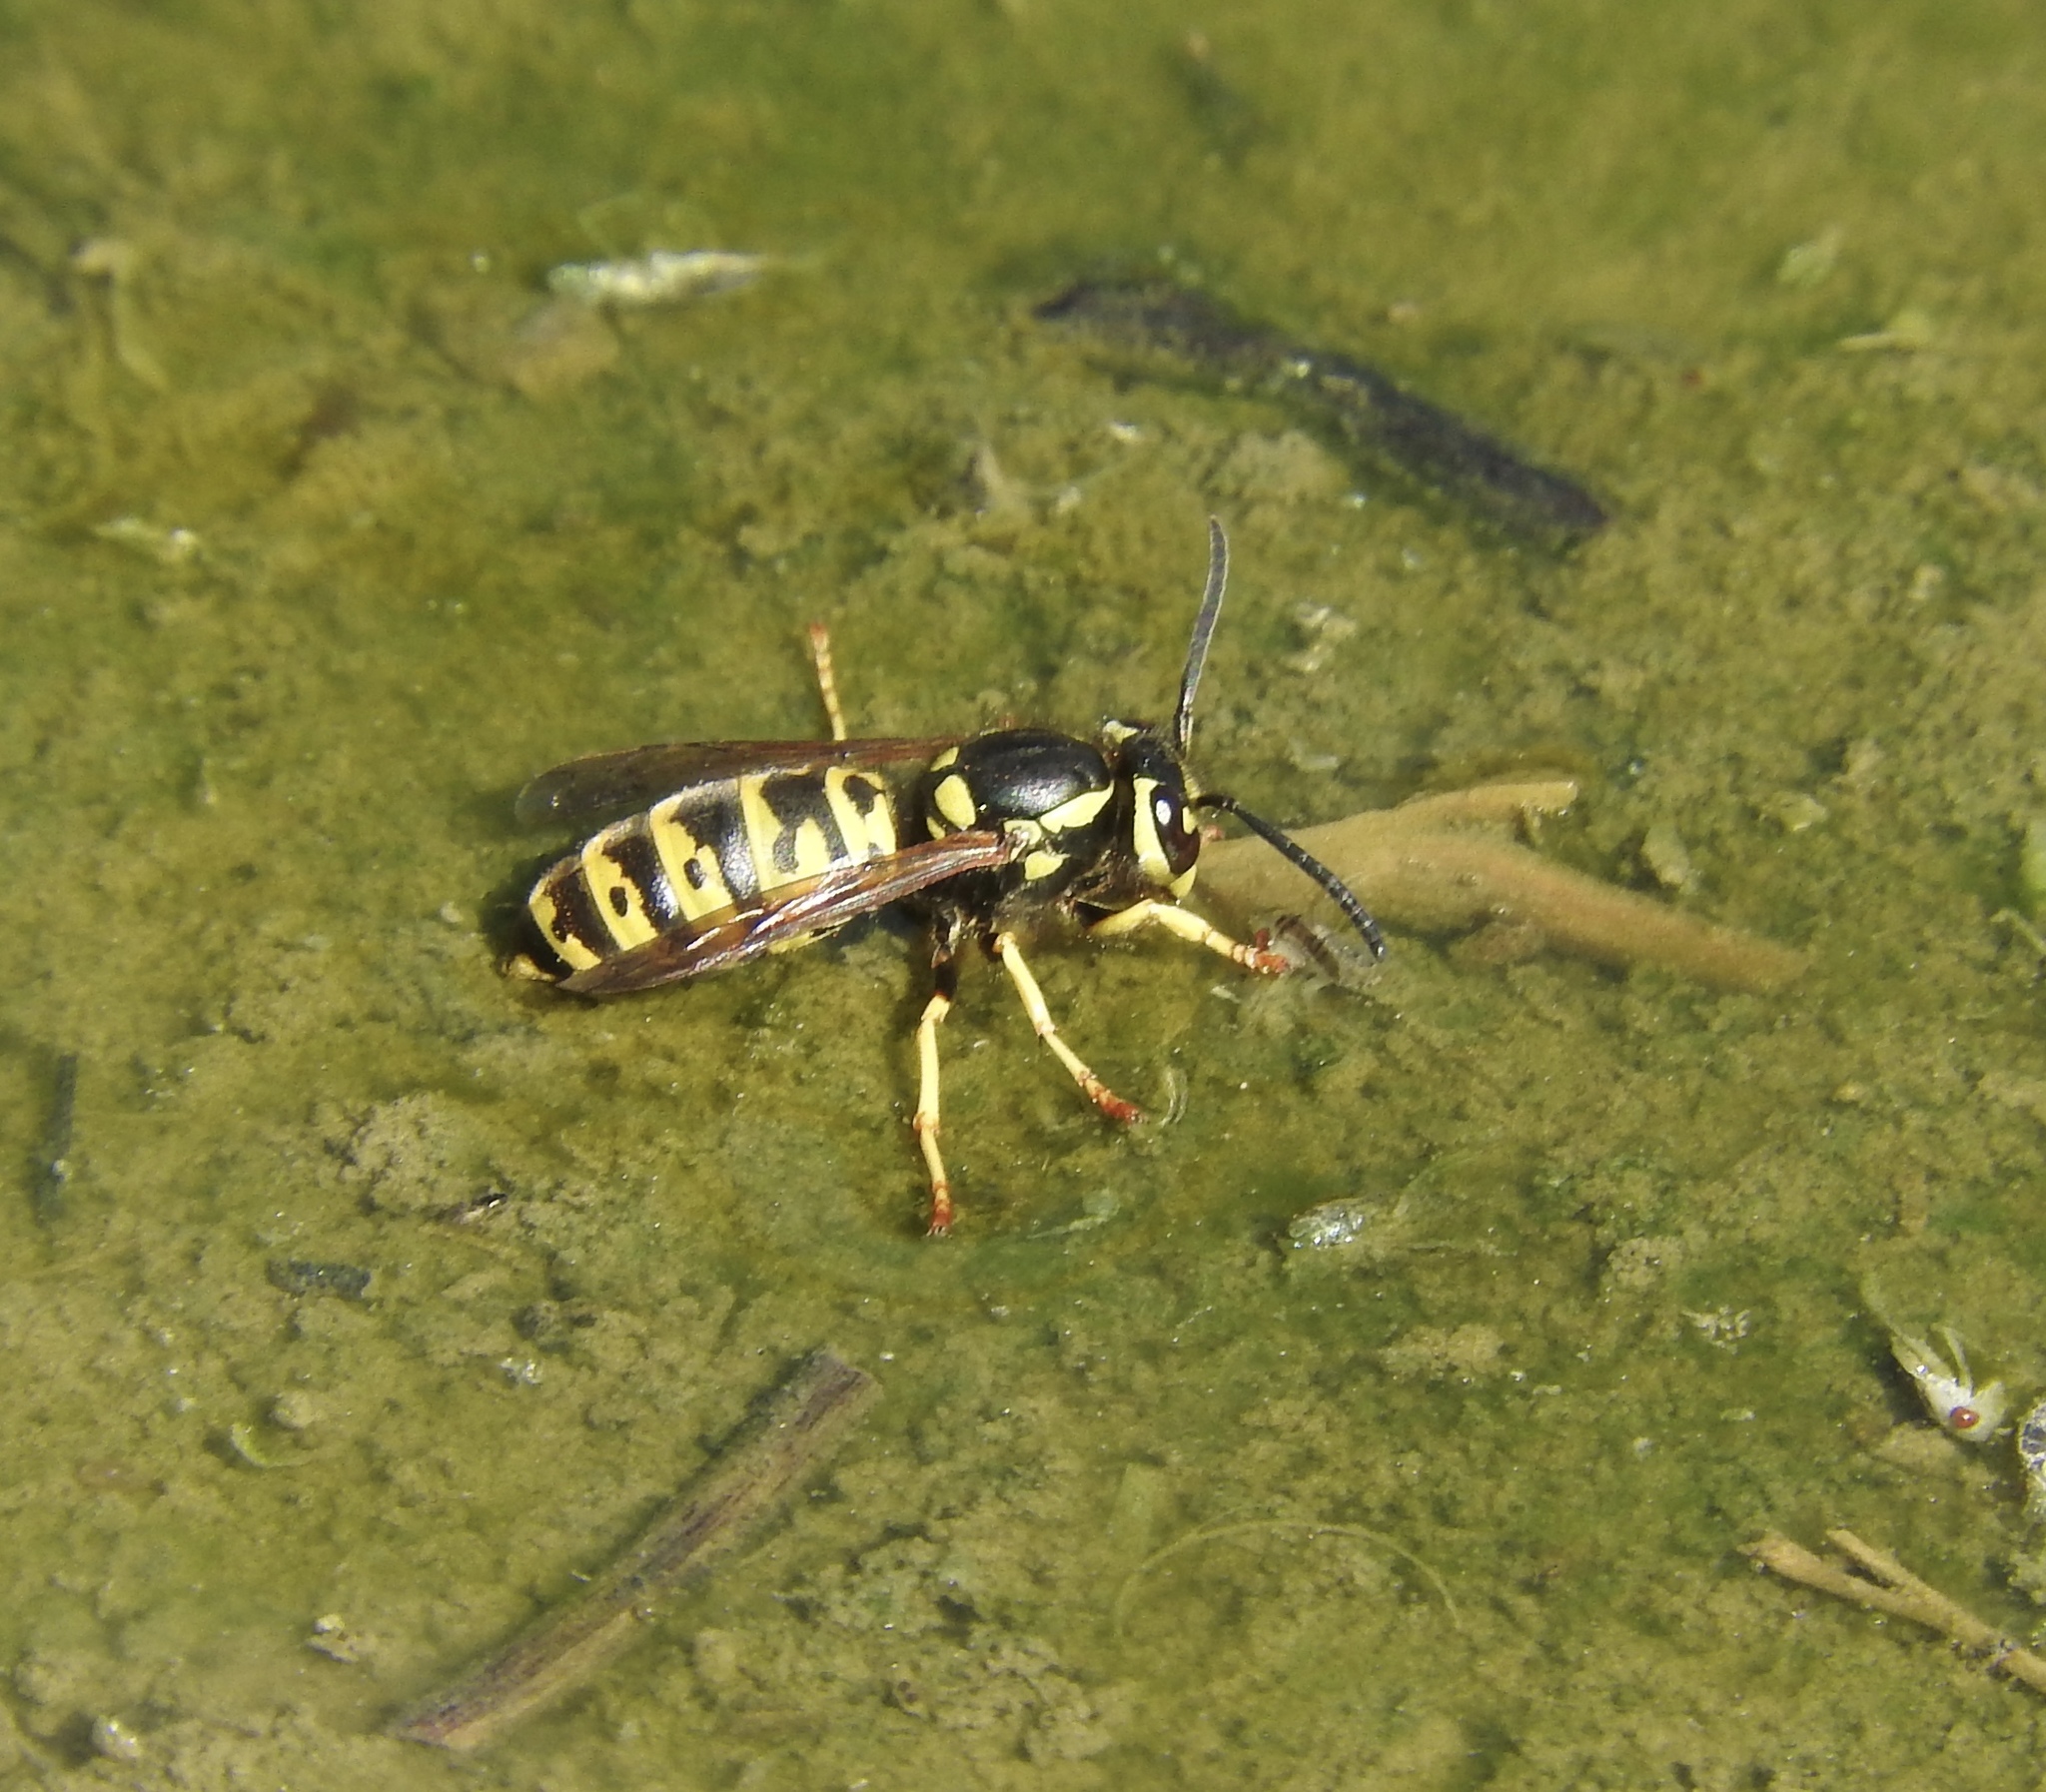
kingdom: Animalia
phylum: Arthropoda
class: Insecta
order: Hymenoptera
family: Vespidae
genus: Vespula
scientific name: Vespula atropilosa
